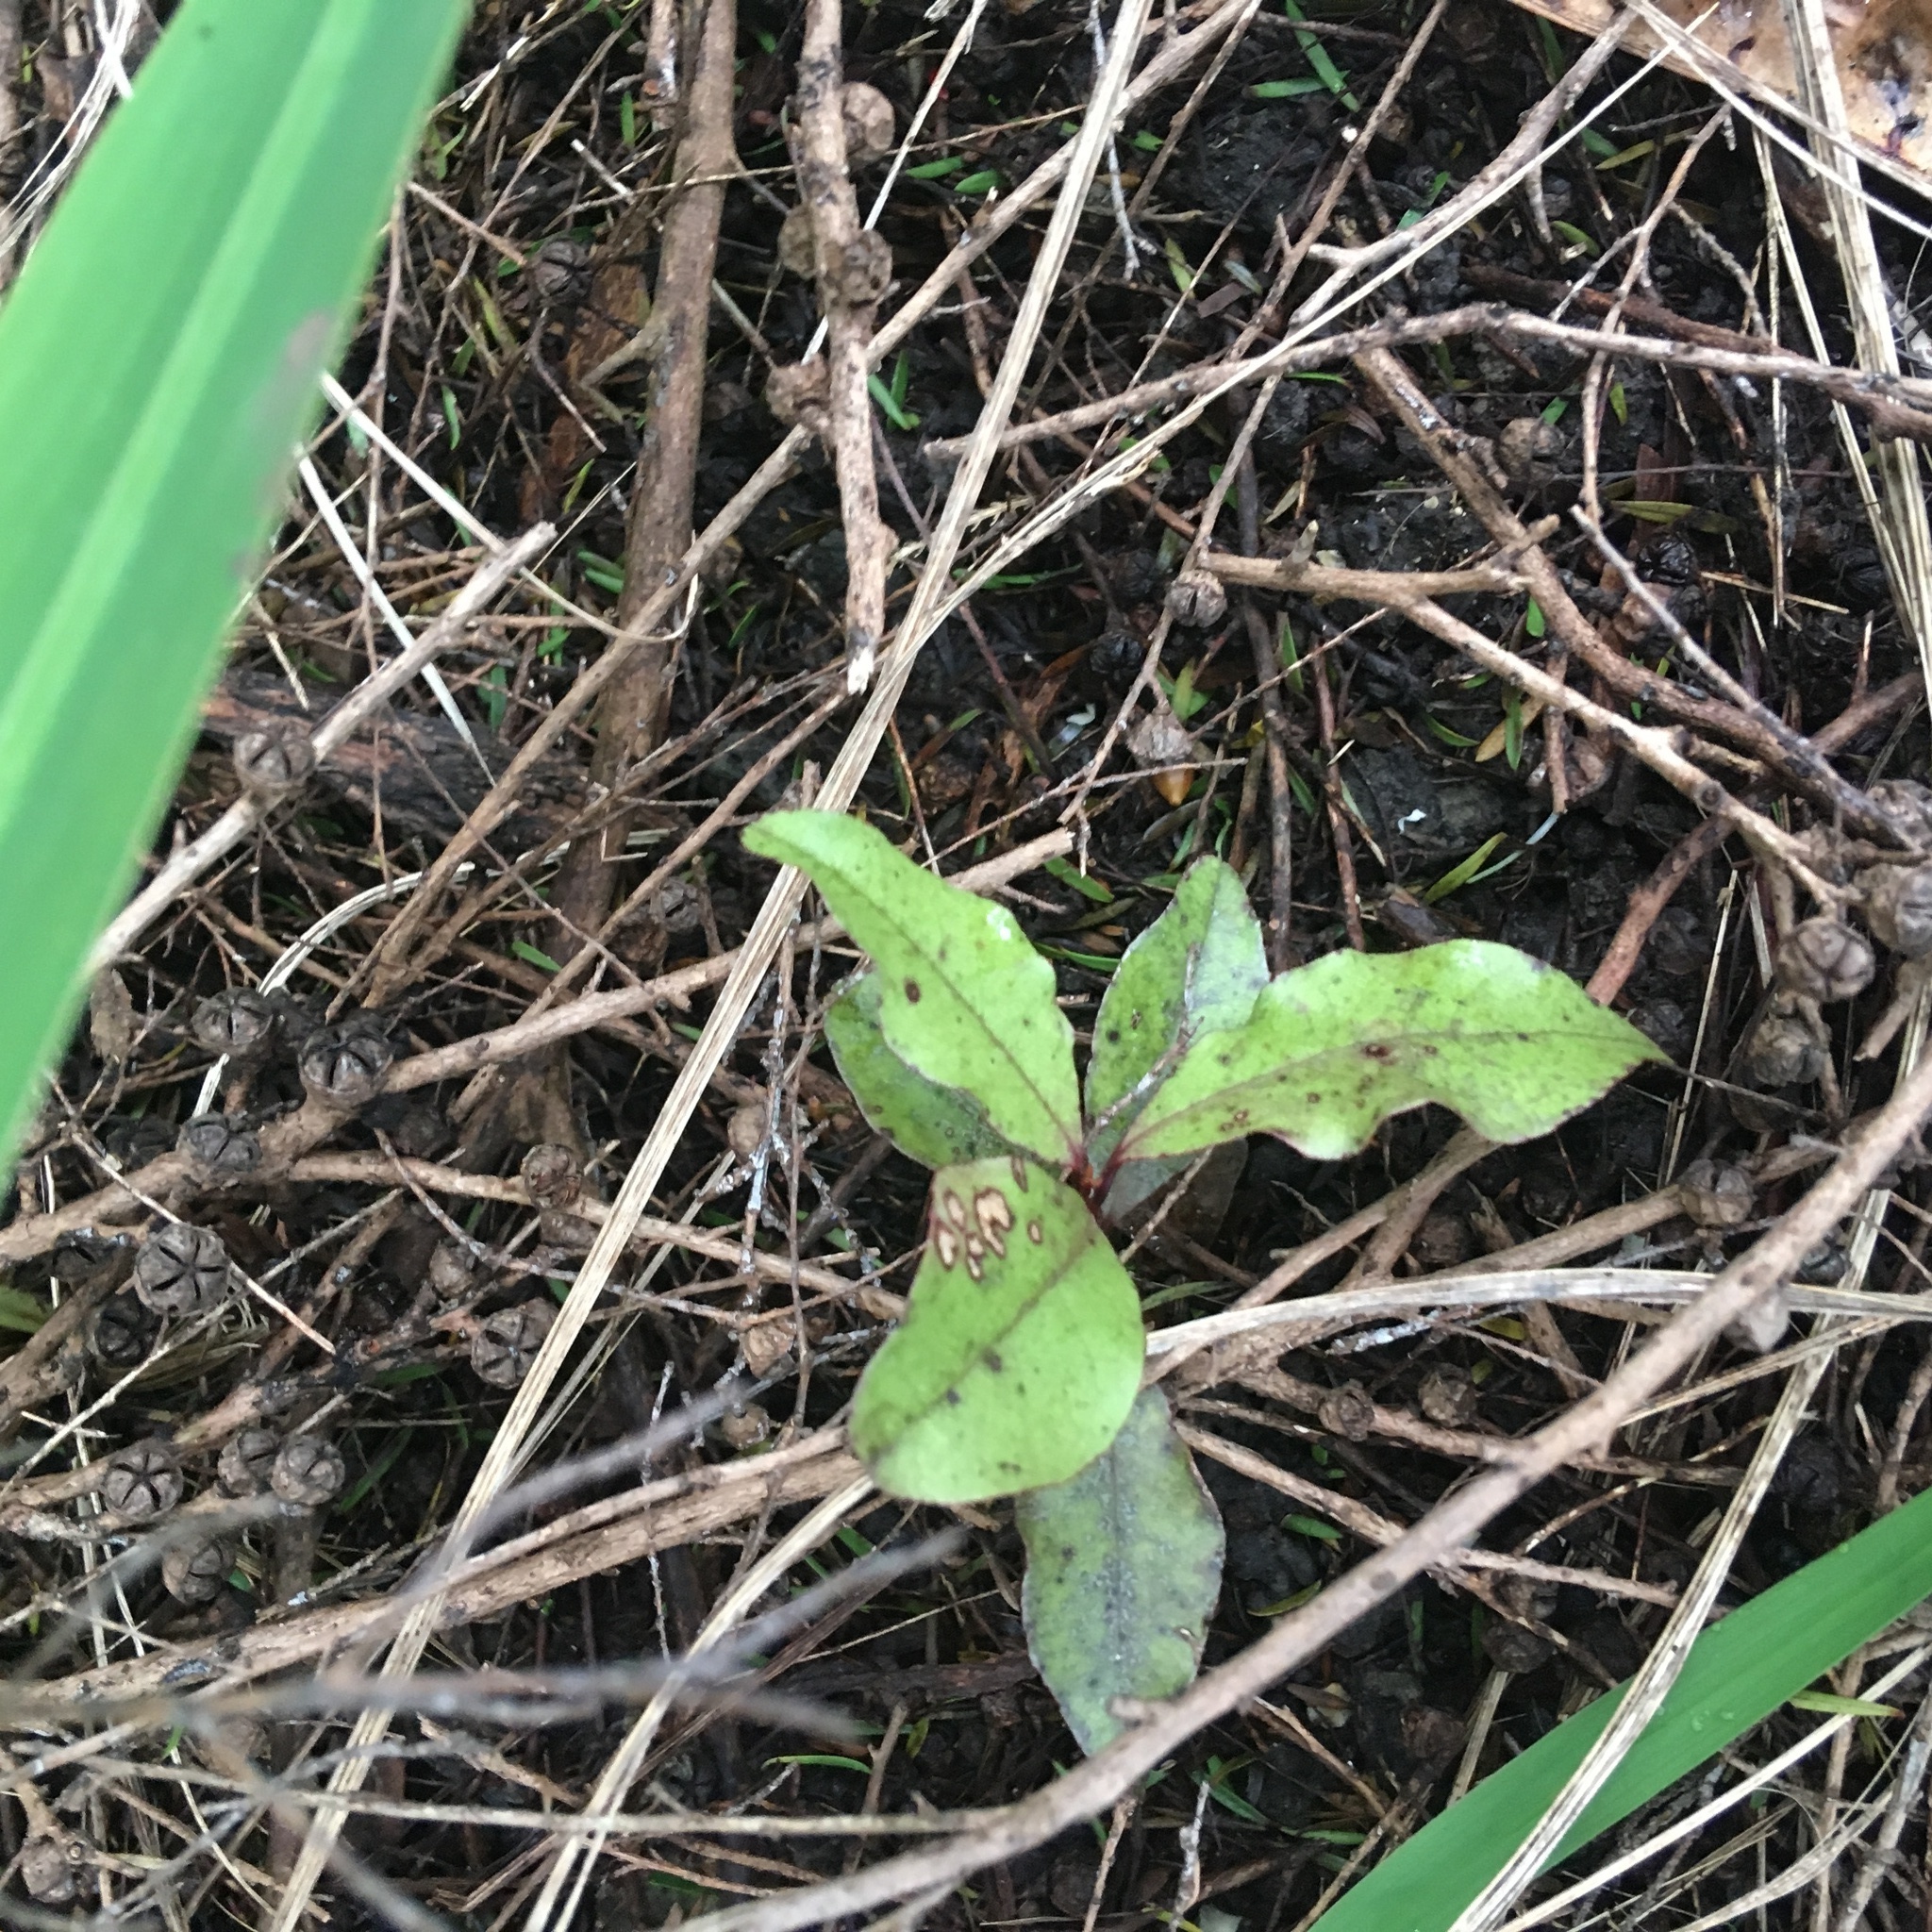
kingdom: Plantae
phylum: Tracheophyta
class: Magnoliopsida
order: Ericales
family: Primulaceae
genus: Myrsine
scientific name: Myrsine australis
